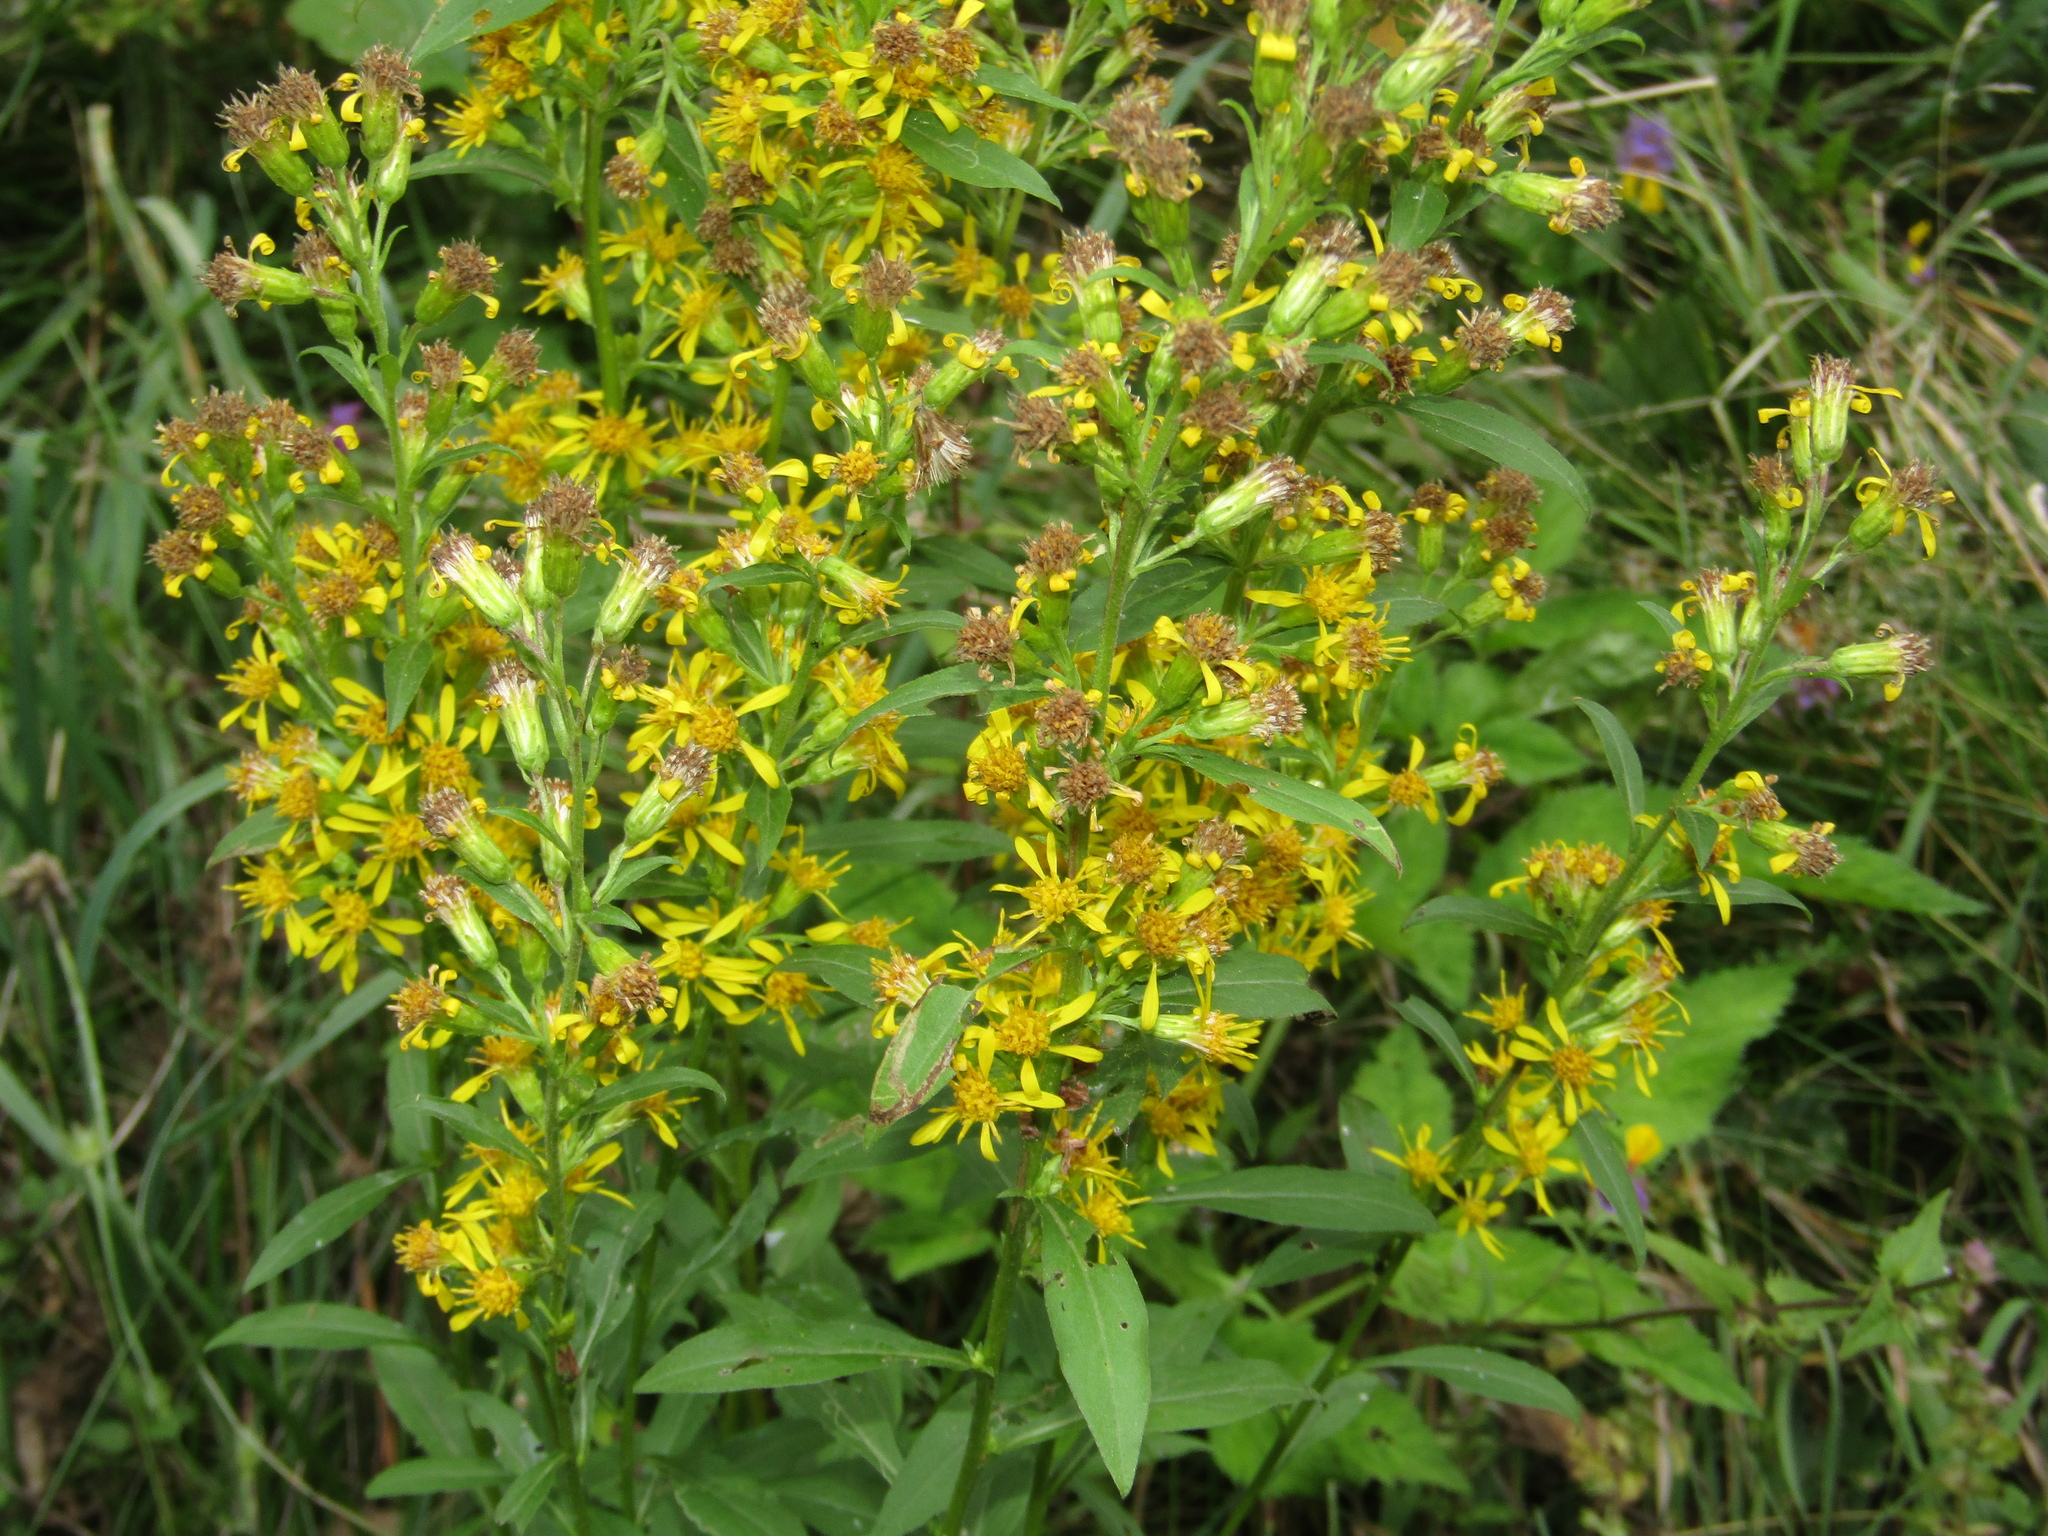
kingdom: Plantae
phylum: Tracheophyta
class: Magnoliopsida
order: Asterales
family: Asteraceae
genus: Solidago
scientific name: Solidago virgaurea
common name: Goldenrod
